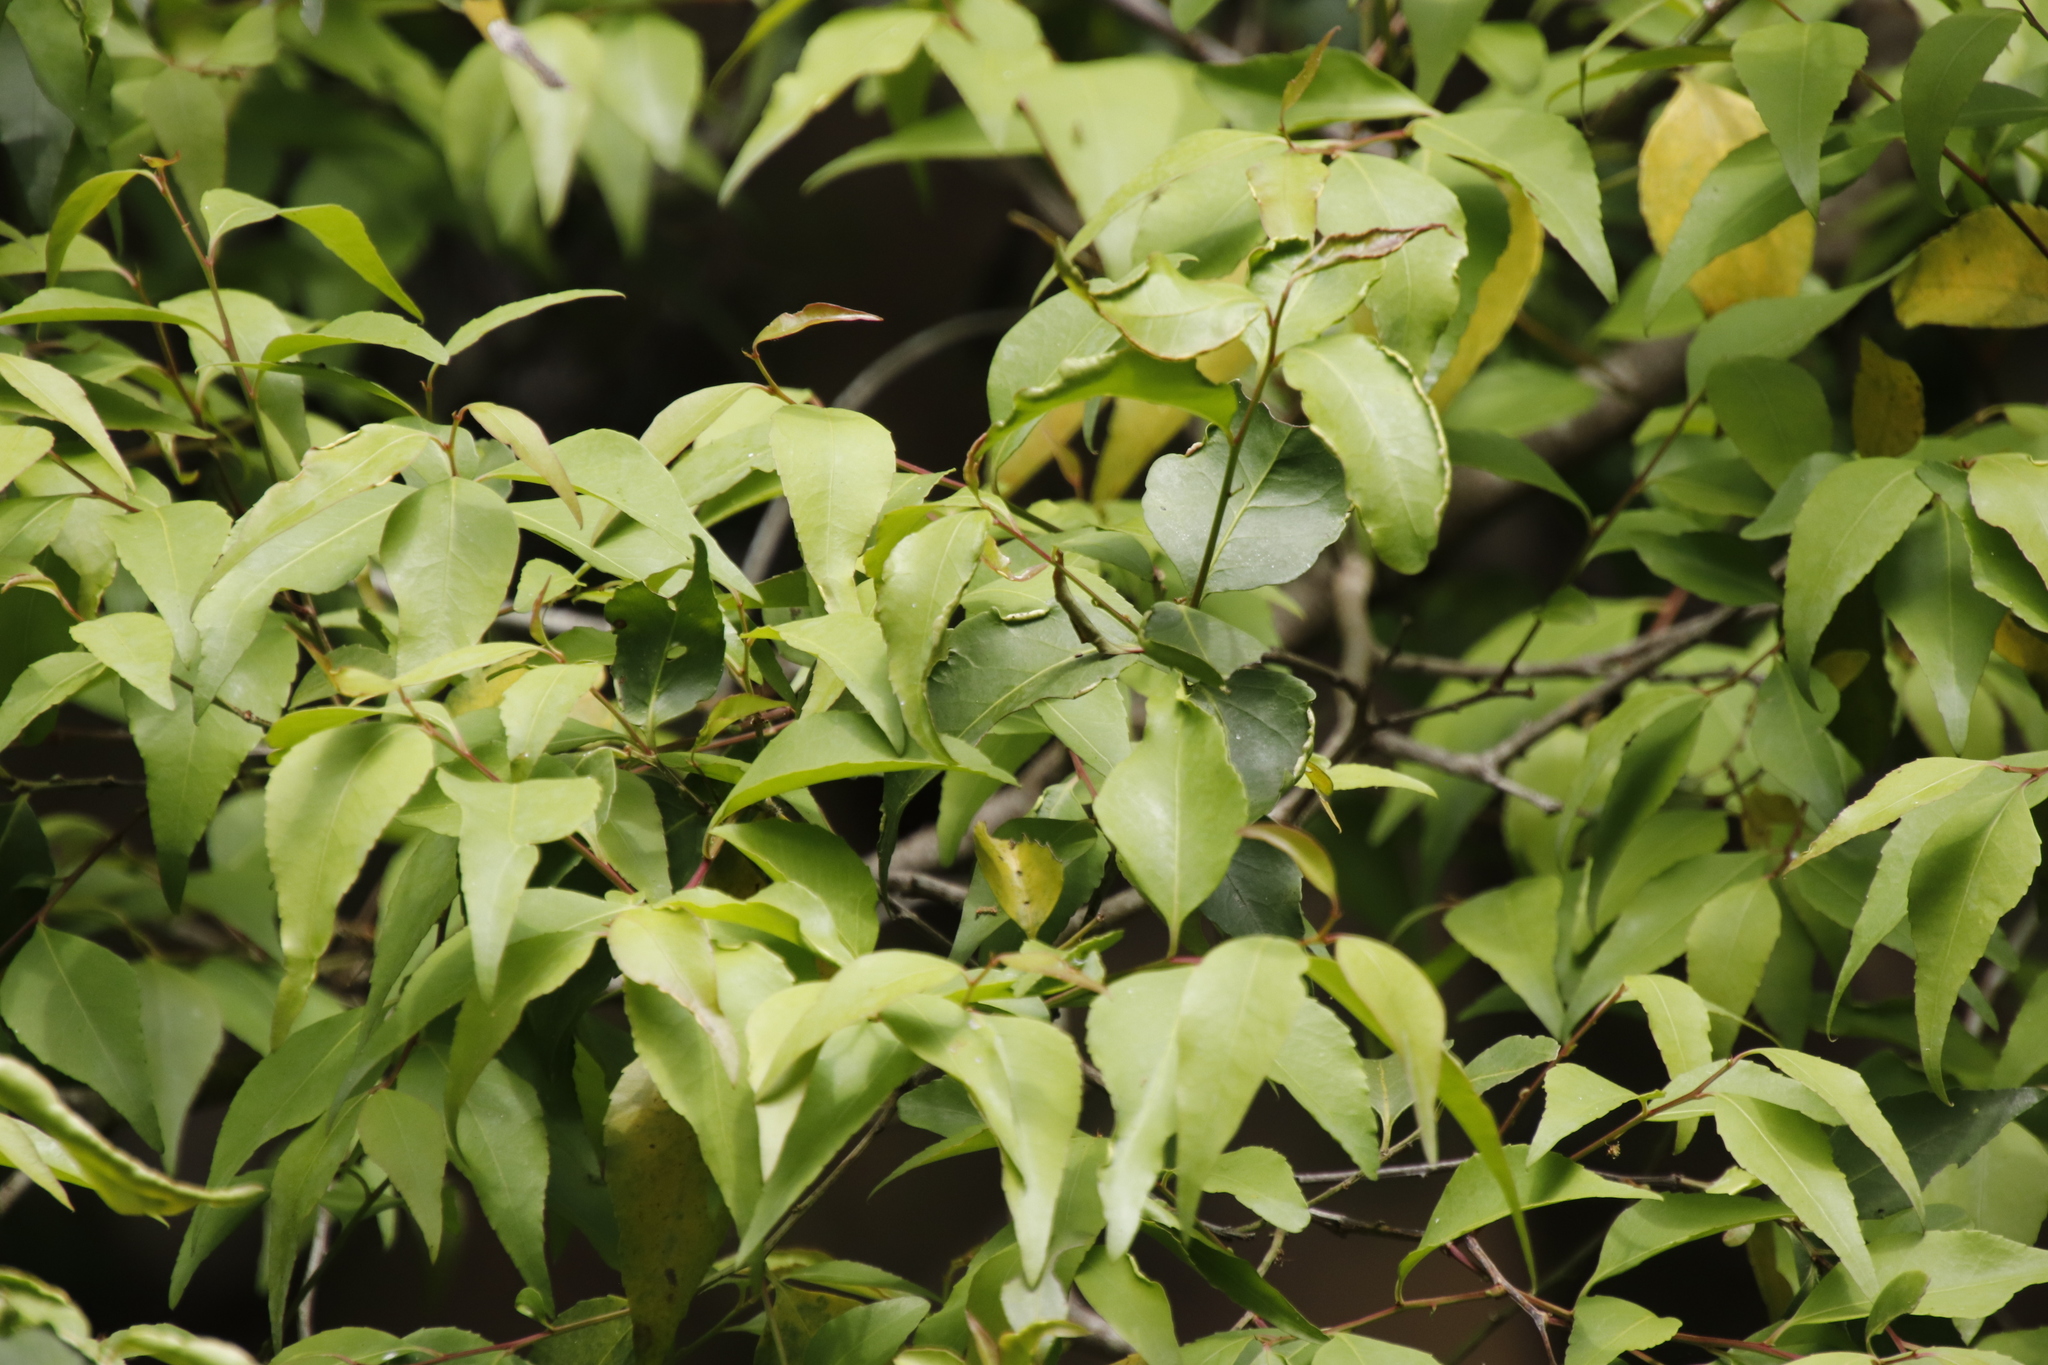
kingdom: Plantae
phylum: Tracheophyta
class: Magnoliopsida
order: Celastrales
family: Celastraceae
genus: Gymnosporia
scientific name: Gymnosporia acuminata
